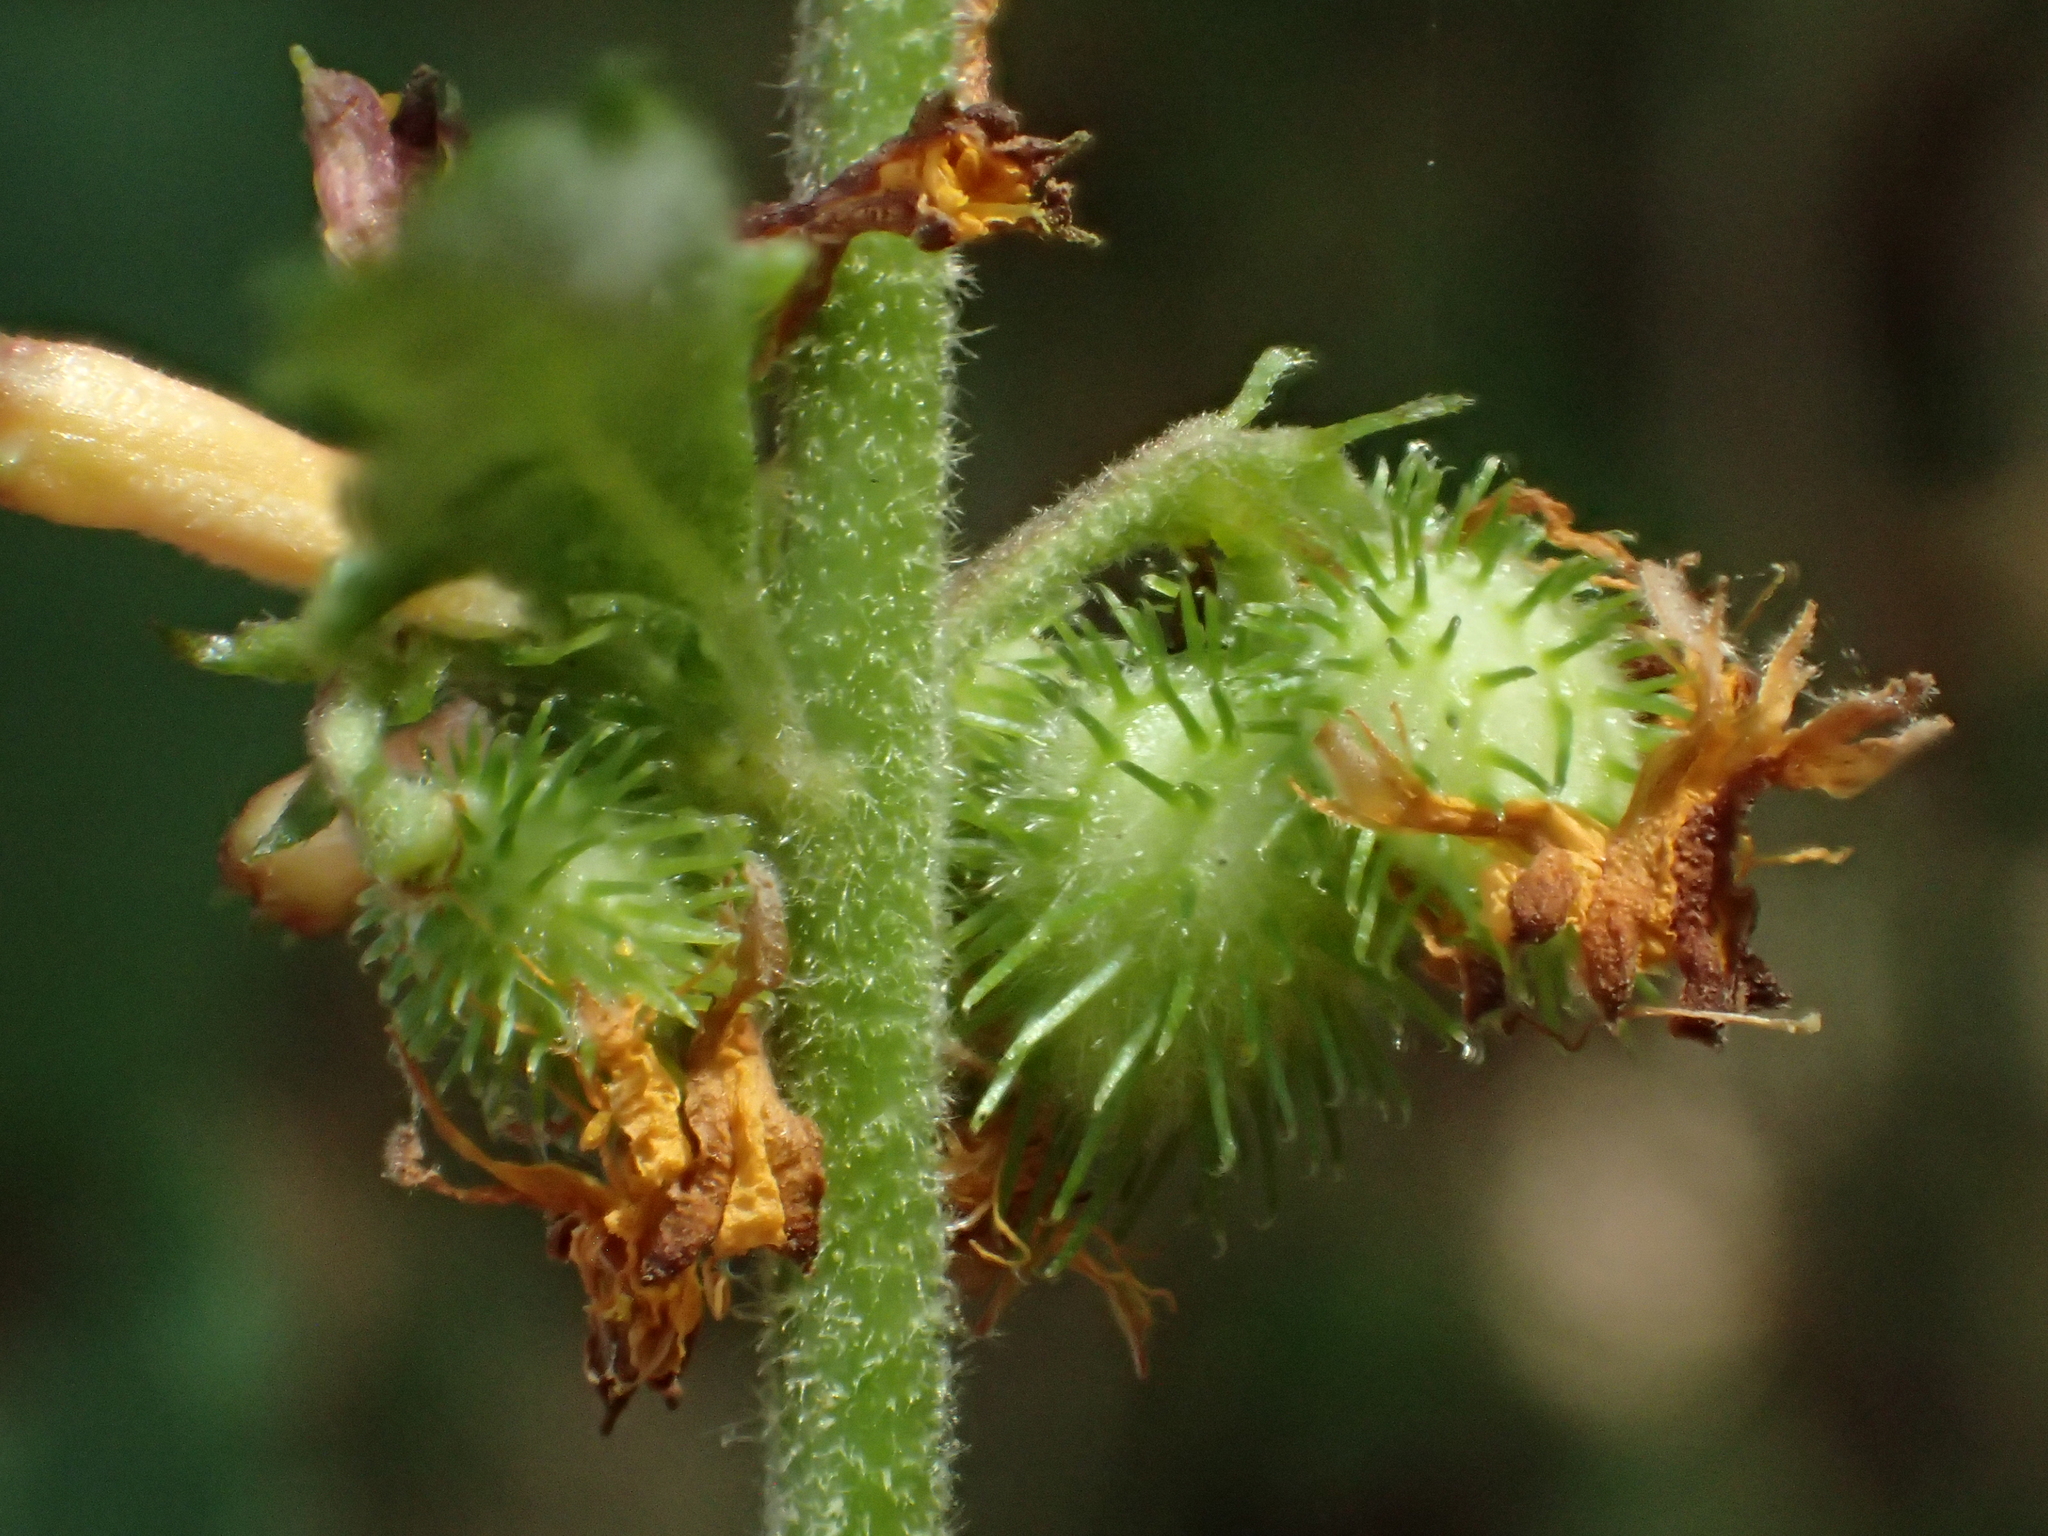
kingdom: Plantae
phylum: Tracheophyta
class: Magnoliopsida
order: Malvales
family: Malvaceae
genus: Triumfetta
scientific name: Triumfetta rhomboidea
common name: Diamond burbark
